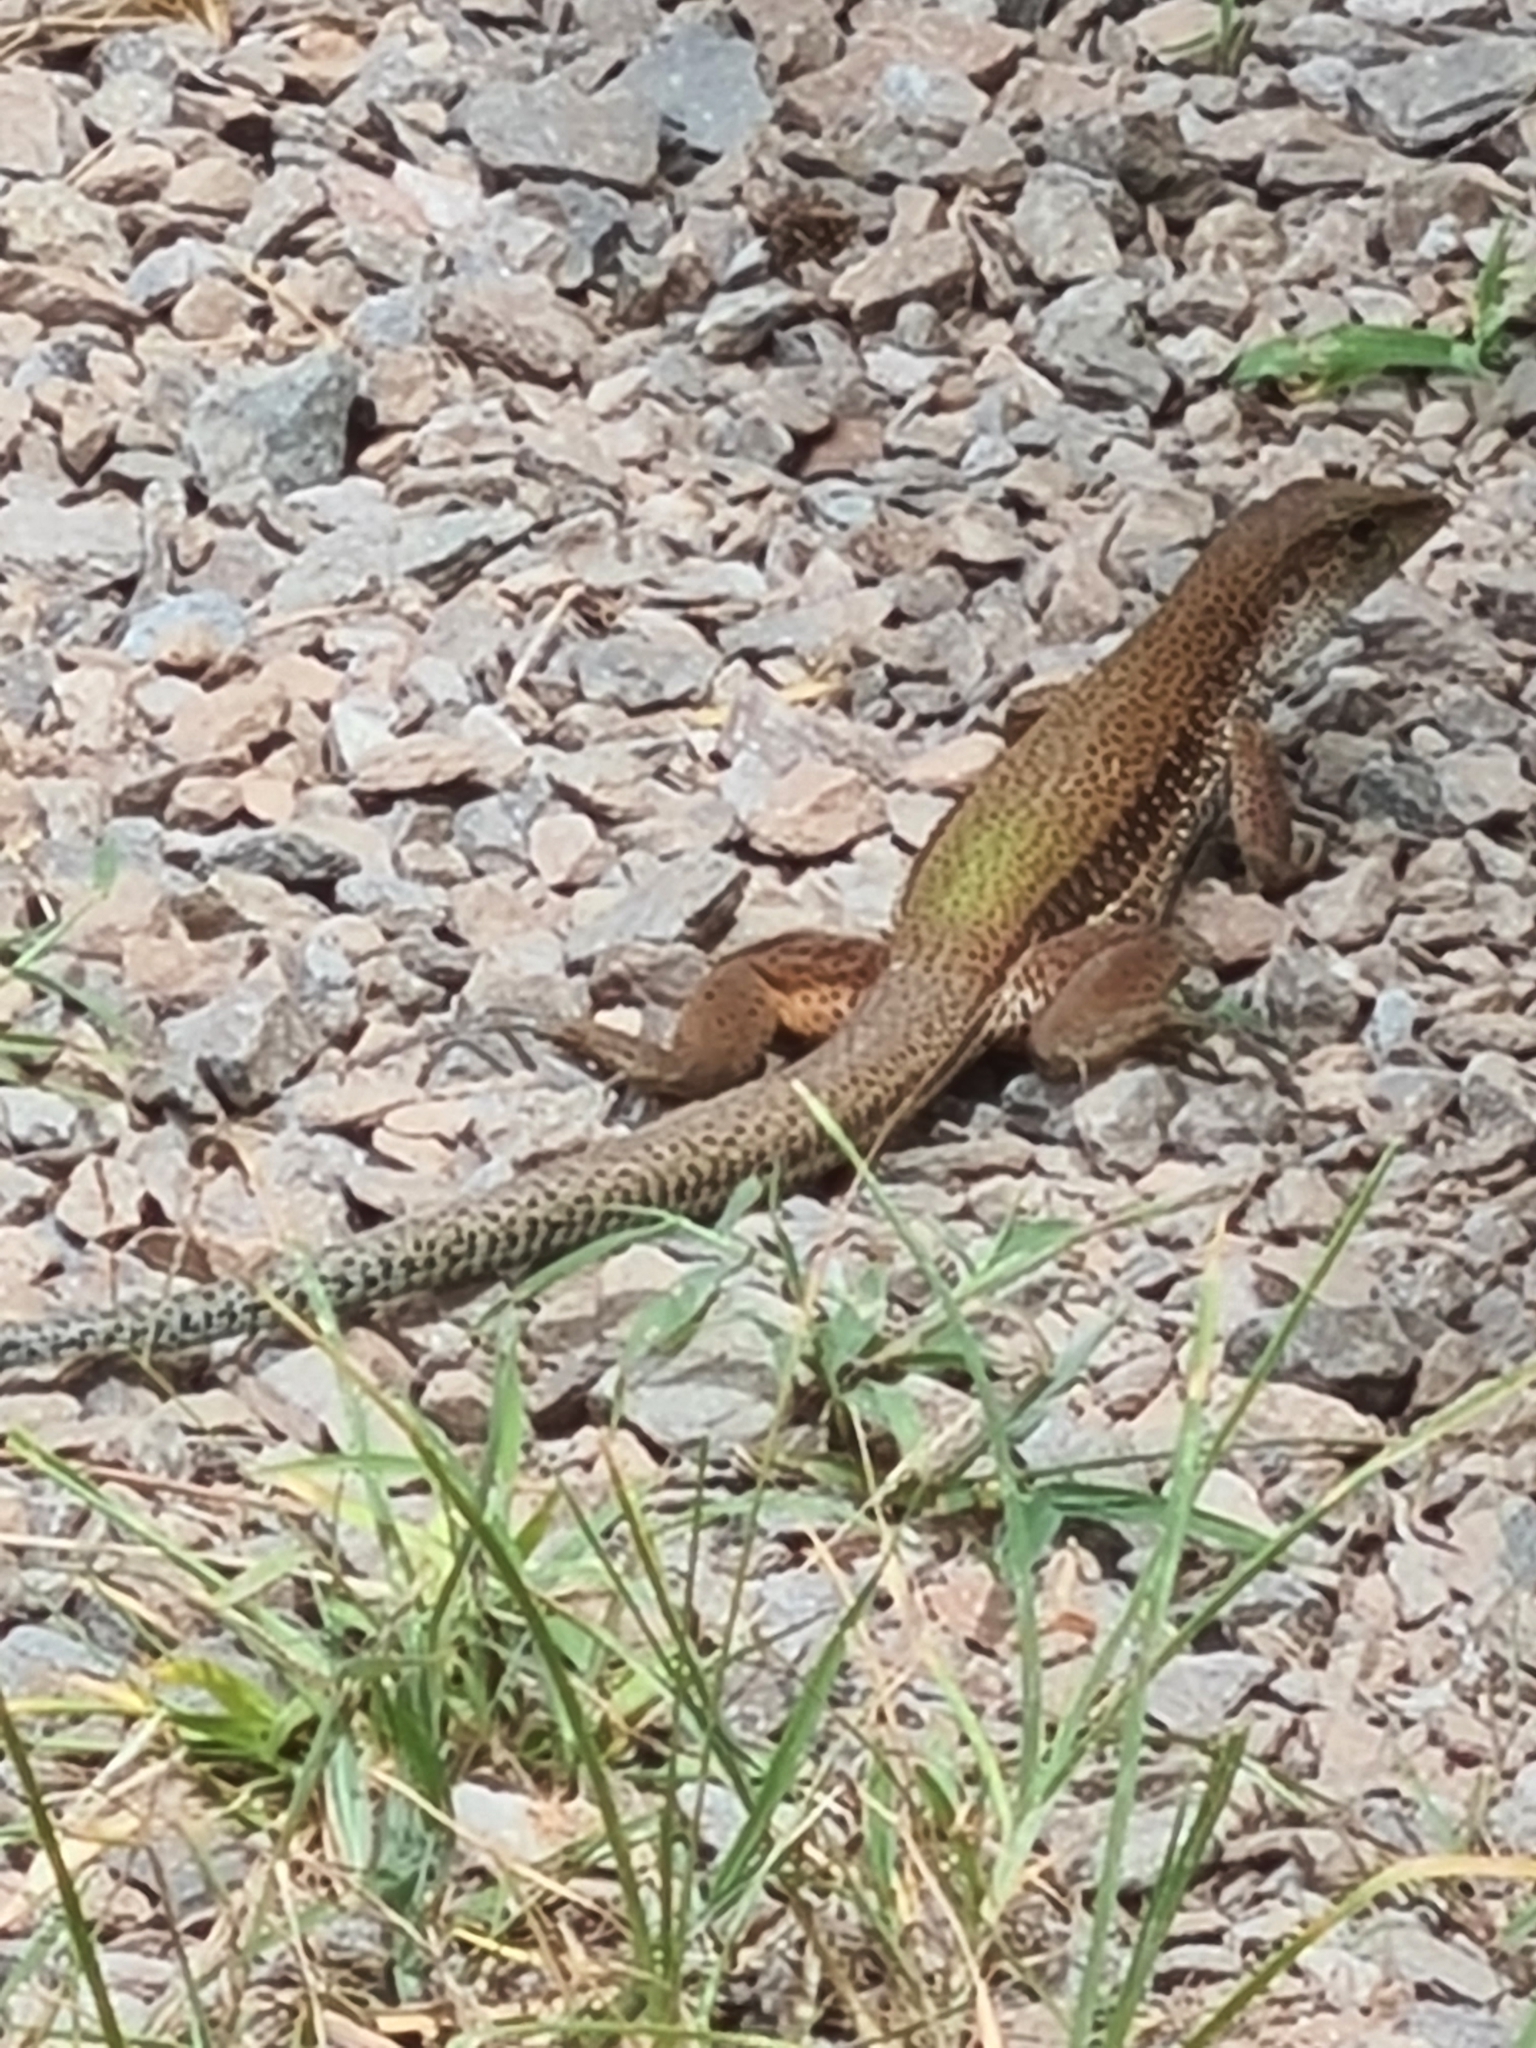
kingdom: Animalia
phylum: Chordata
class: Squamata
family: Teiidae
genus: Ameiva
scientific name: Ameiva ameiva
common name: Giant ameiva
